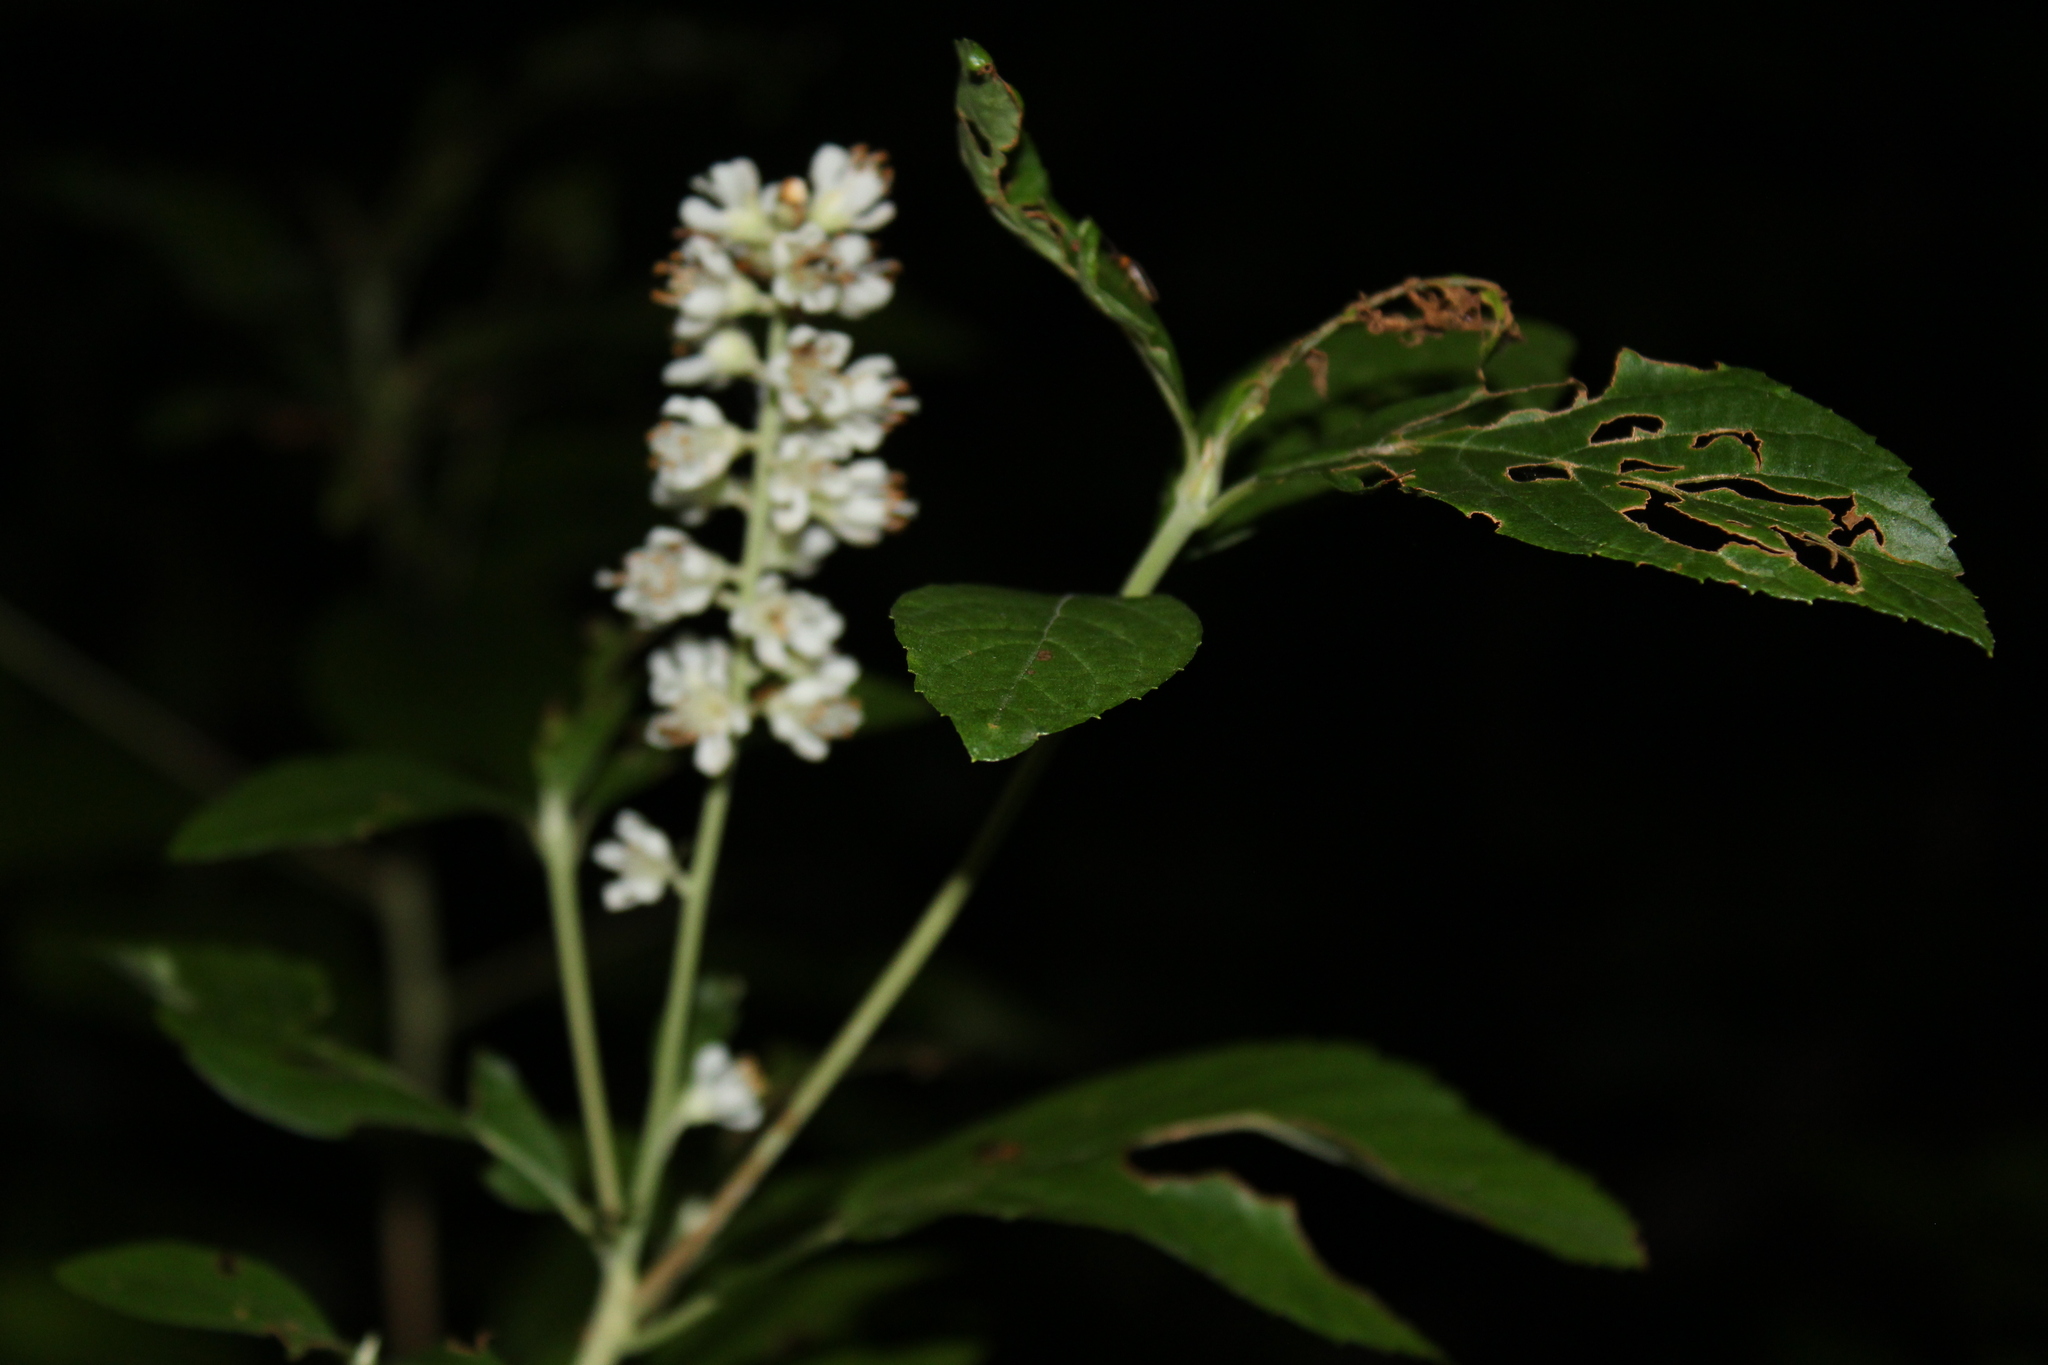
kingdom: Plantae
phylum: Tracheophyta
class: Magnoliopsida
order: Ericales
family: Clethraceae
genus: Clethra
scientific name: Clethra alnifolia
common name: Sweet pepperbush
